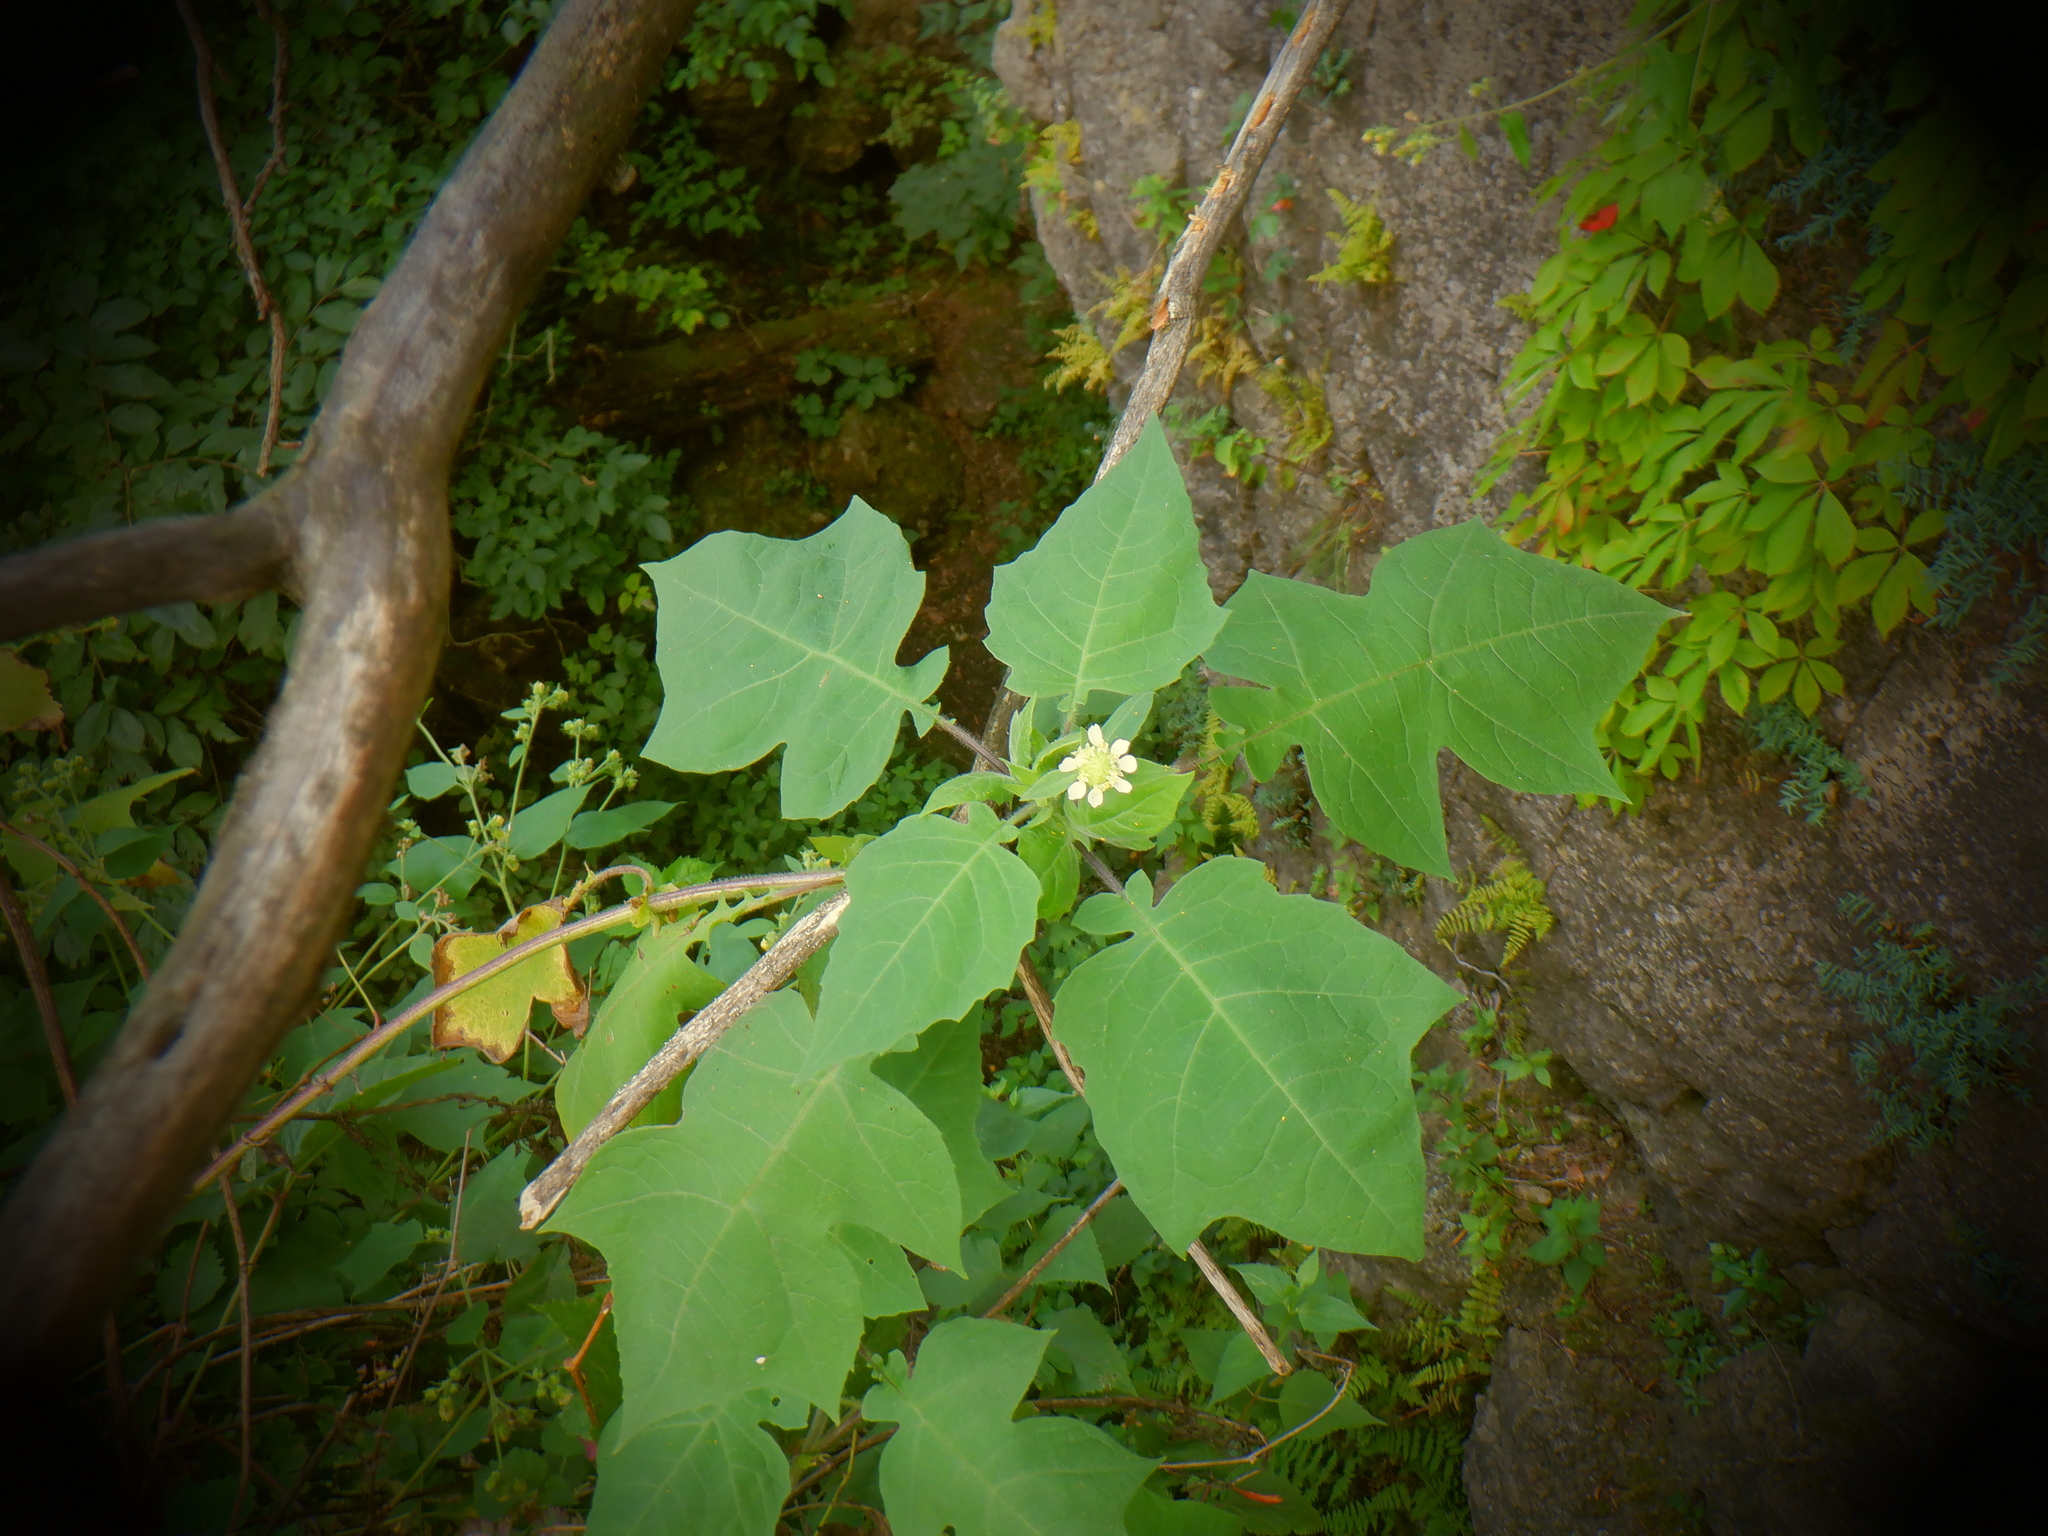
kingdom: Plantae
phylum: Tracheophyta
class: Magnoliopsida
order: Asterales
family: Asteraceae
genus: Polymnia
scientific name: Polymnia canadensis
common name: Pale-flowered leafcup
